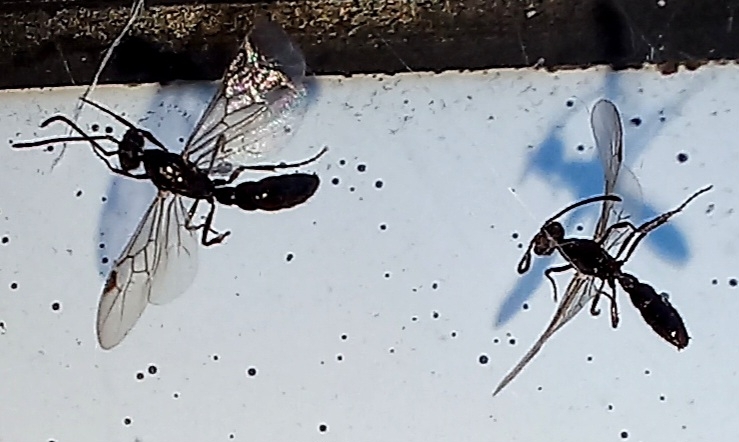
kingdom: Animalia
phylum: Arthropoda
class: Insecta
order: Hymenoptera
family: Formicidae
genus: Fulakora
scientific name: Fulakora
